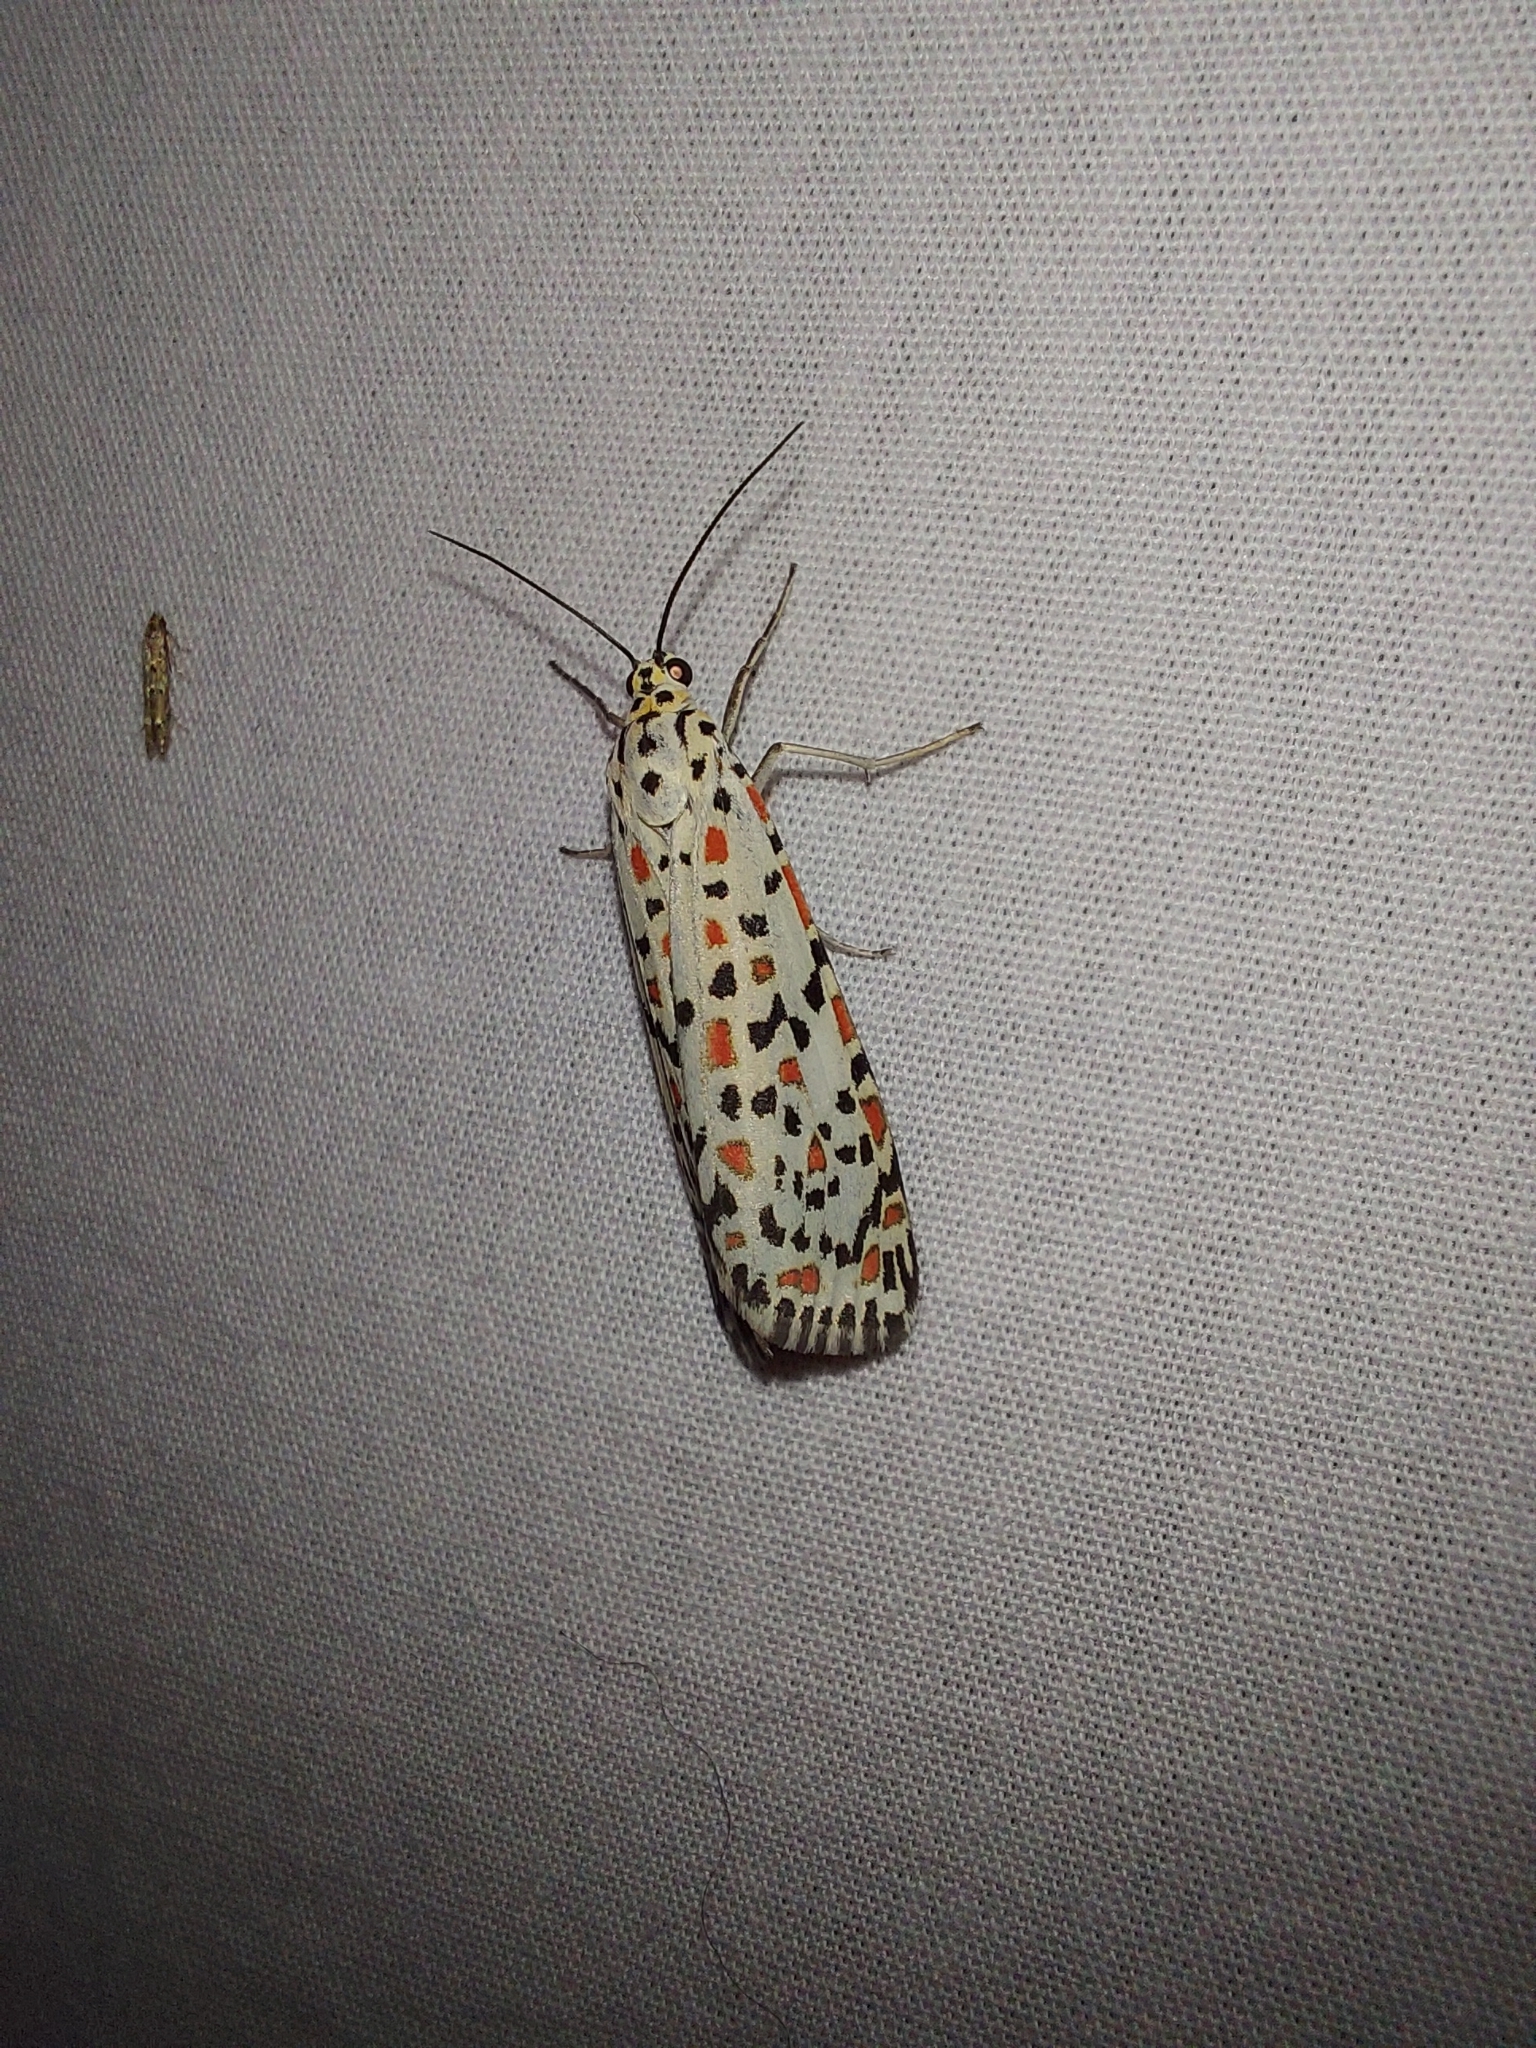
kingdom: Animalia
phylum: Arthropoda
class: Insecta
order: Lepidoptera
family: Erebidae
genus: Utetheisa
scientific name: Utetheisa pulchelloides
